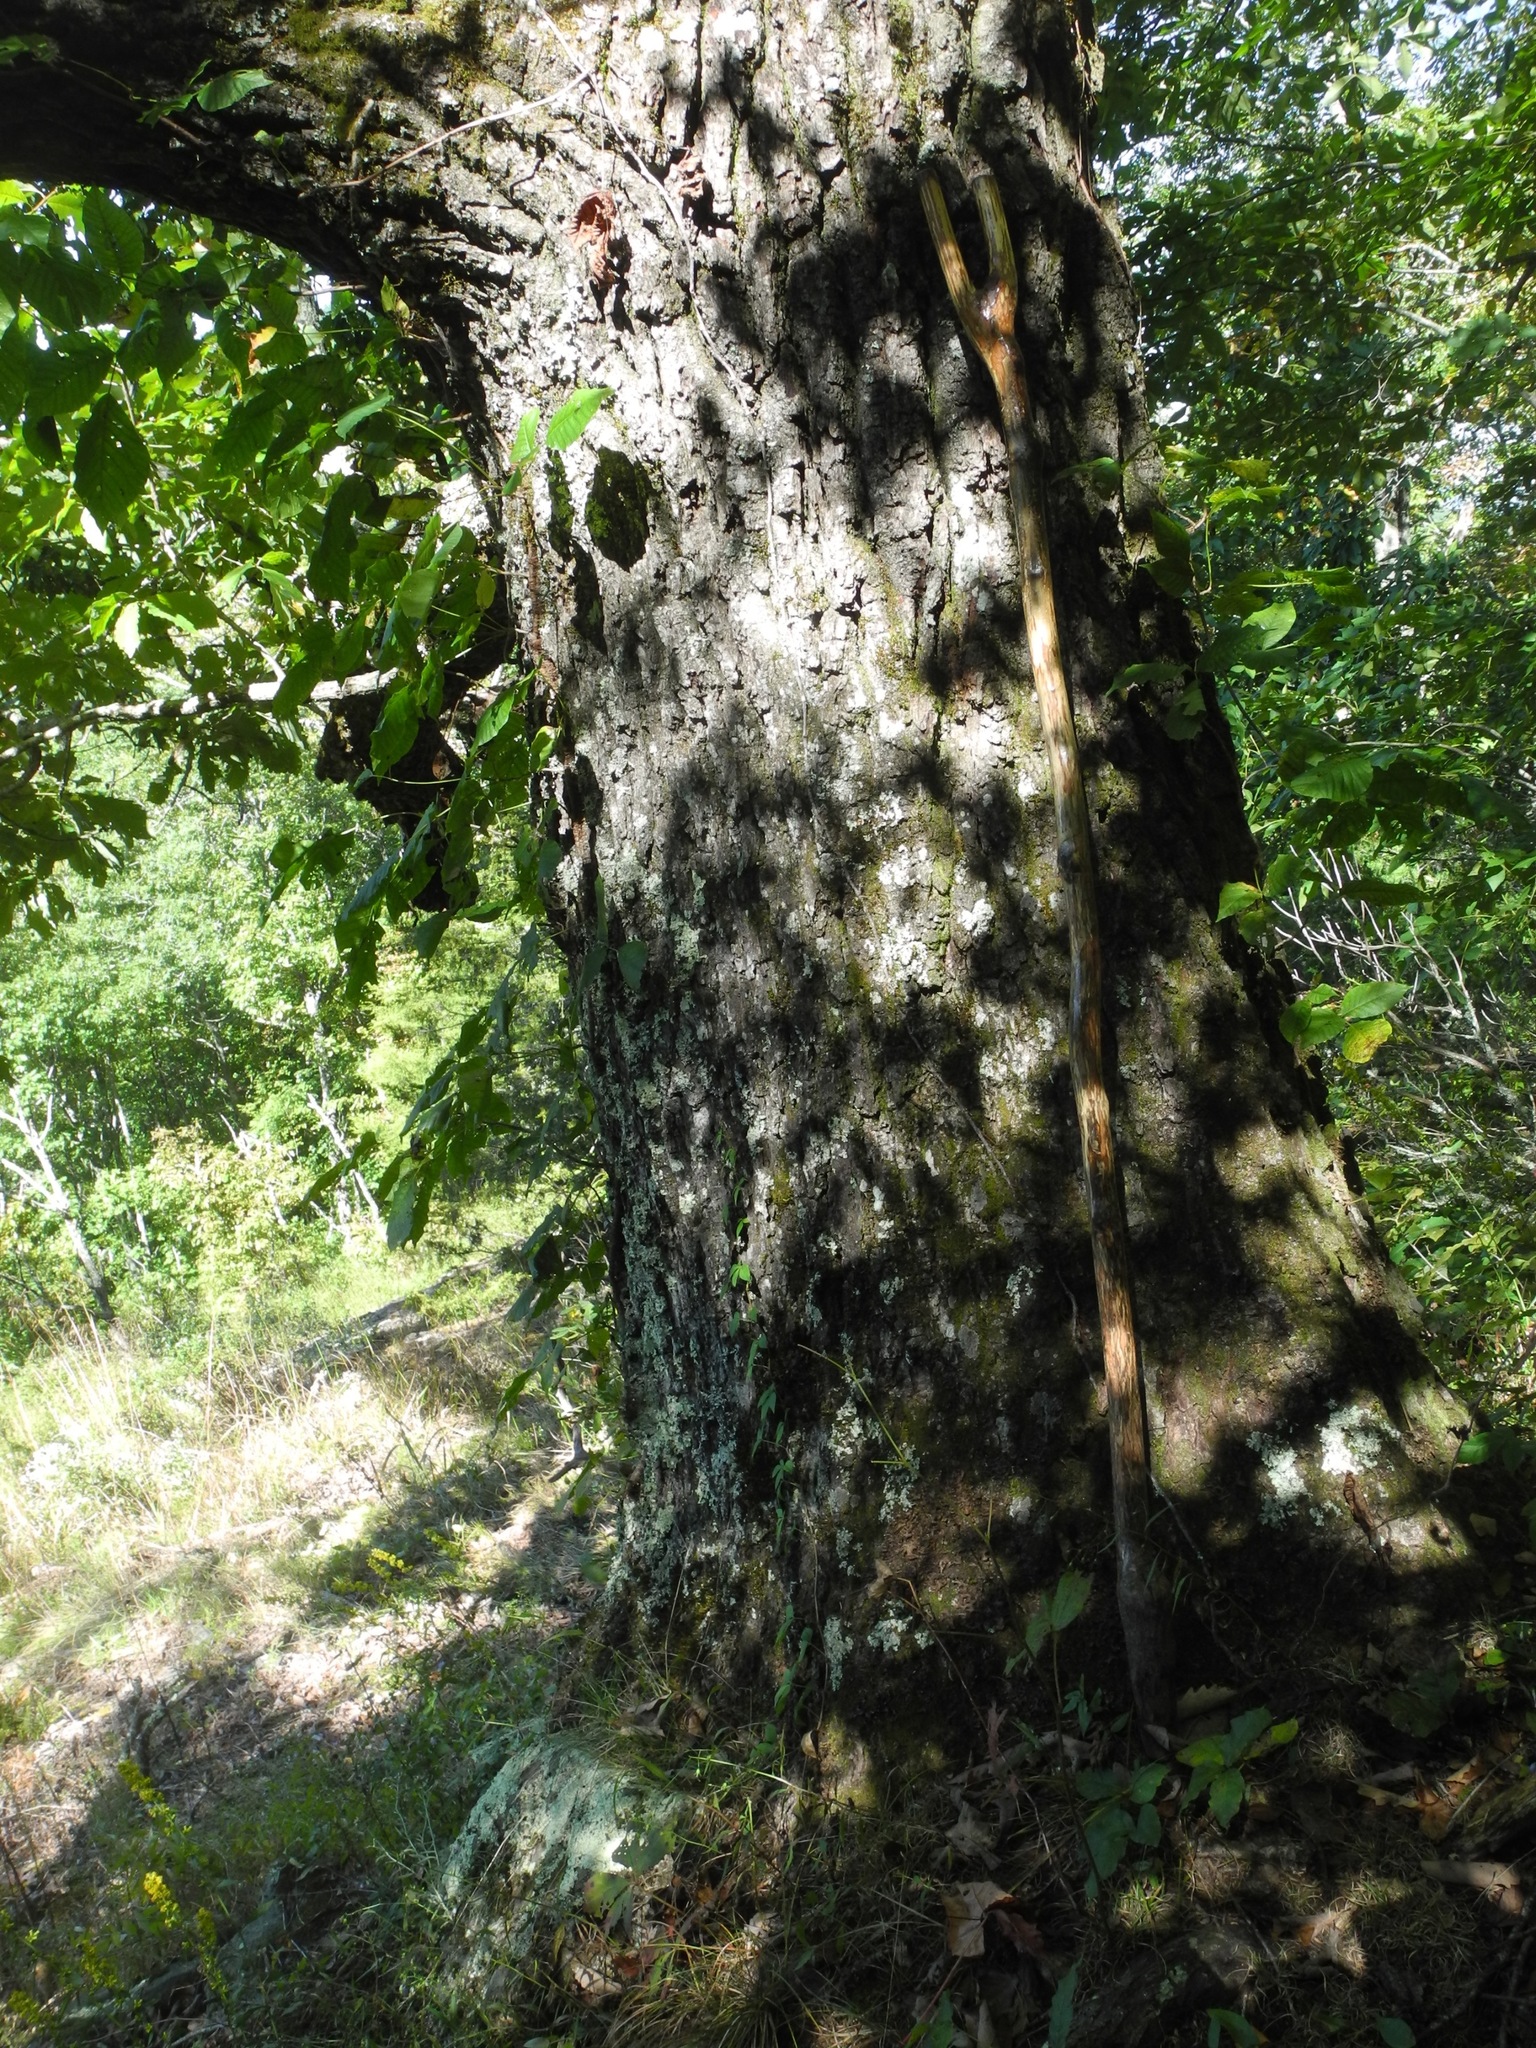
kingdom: Plantae
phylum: Tracheophyta
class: Magnoliopsida
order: Fagales
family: Fagaceae
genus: Quercus
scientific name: Quercus montana
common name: Chestnut oak
